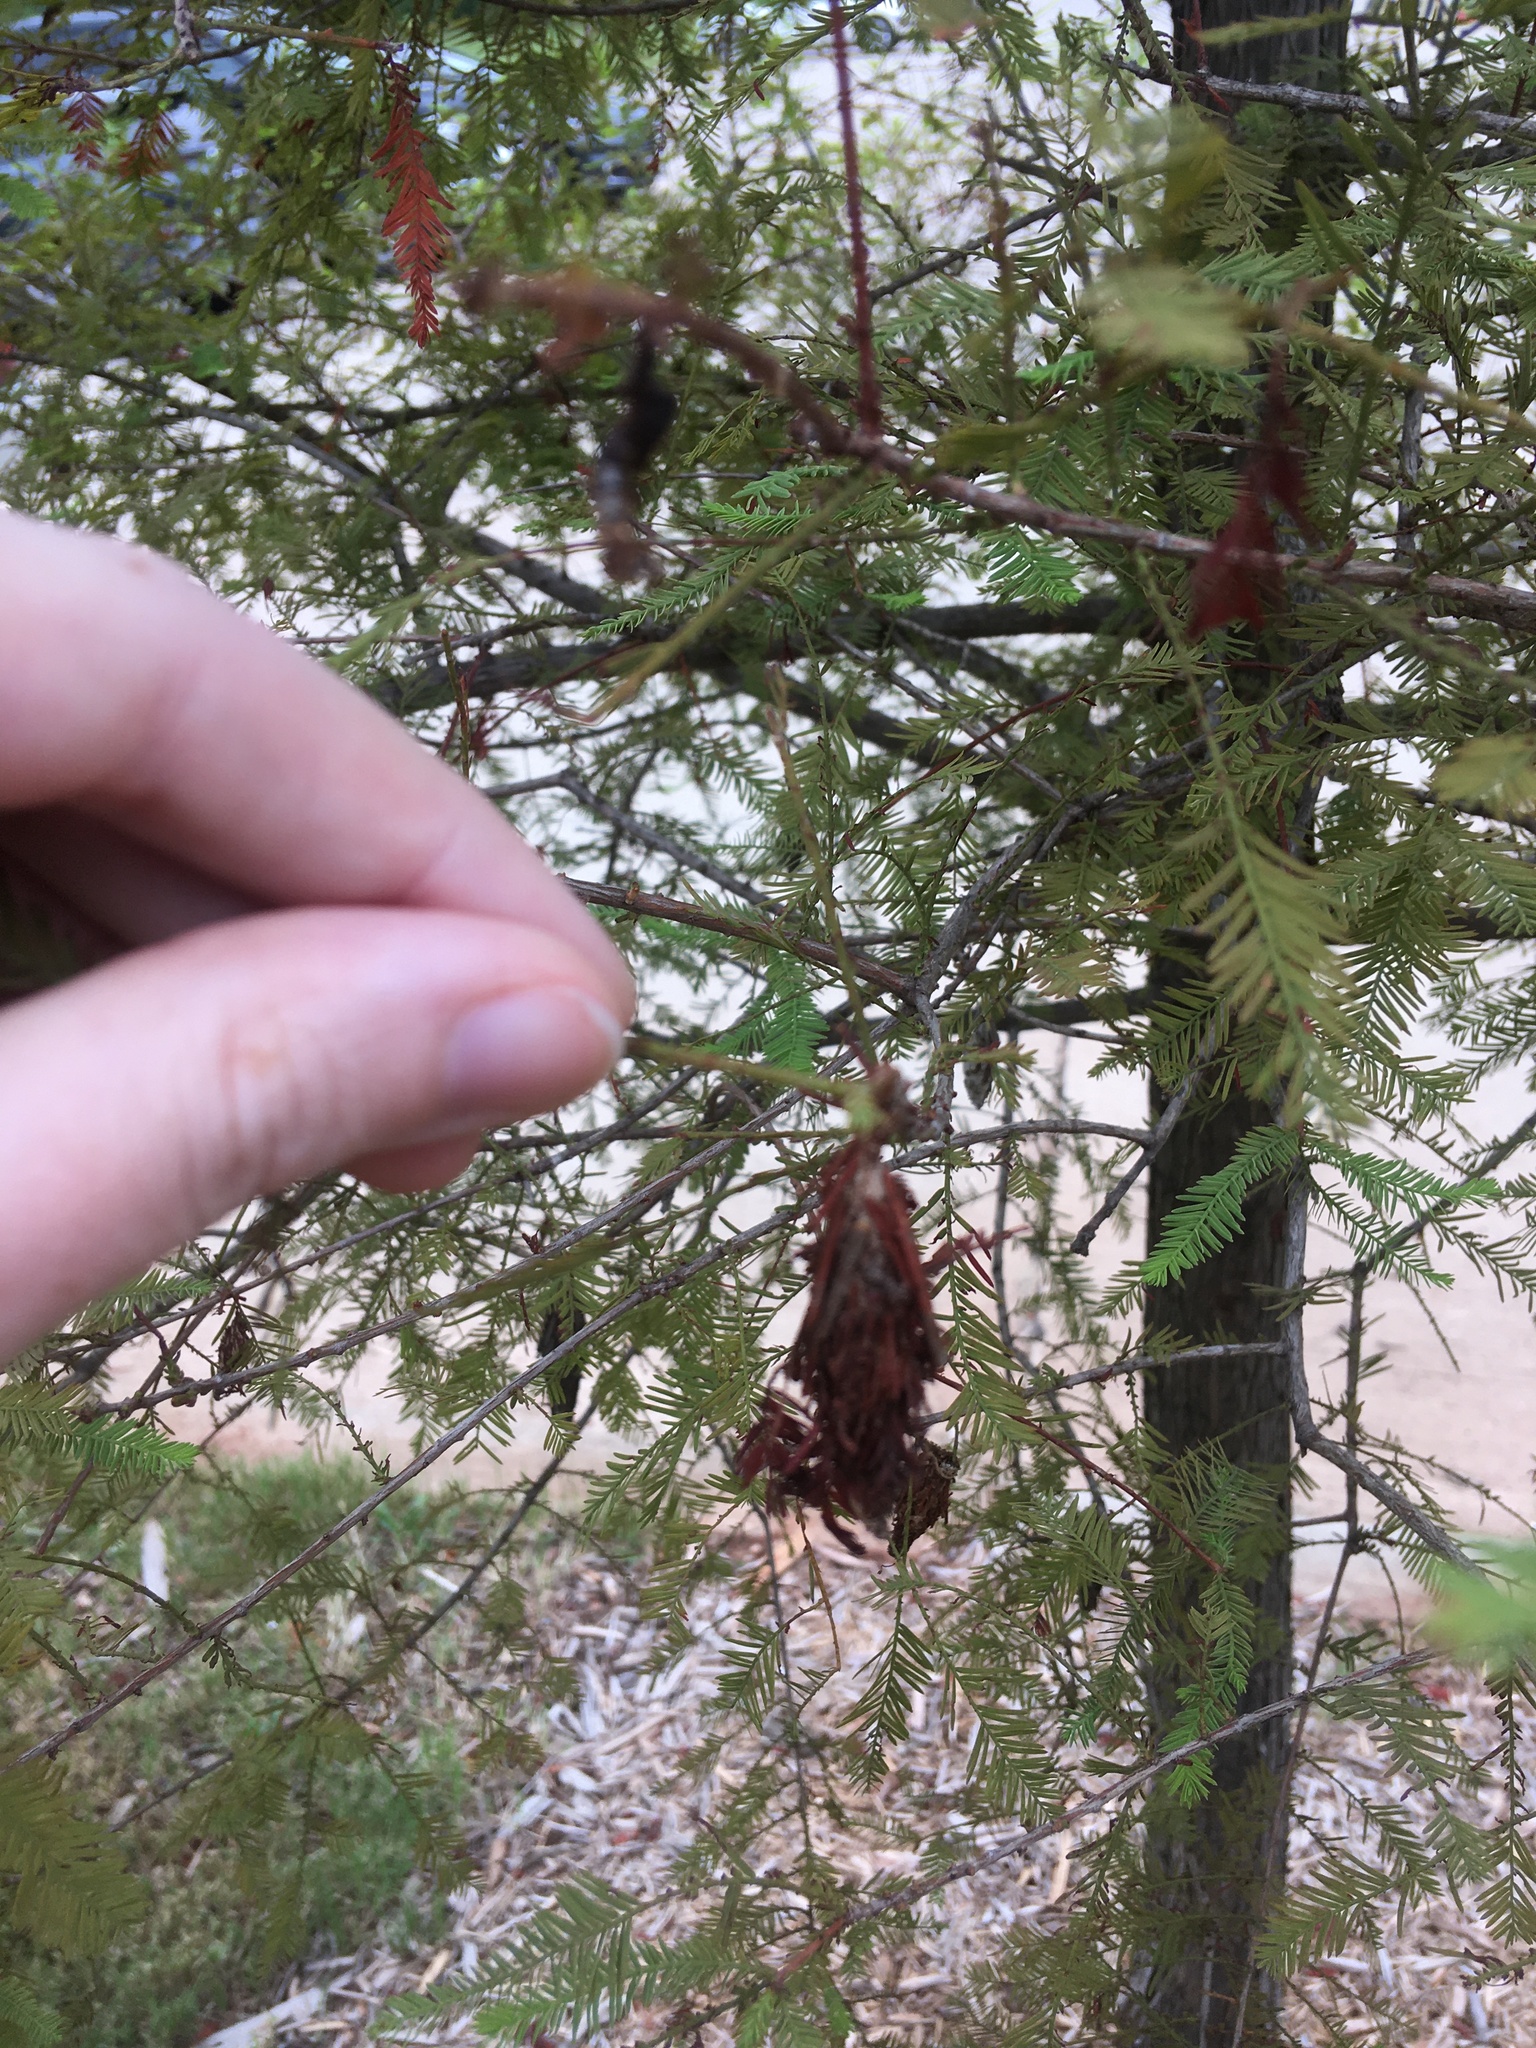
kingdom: Animalia
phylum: Arthropoda
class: Insecta
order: Lepidoptera
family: Psychidae
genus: Thyridopteryx
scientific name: Thyridopteryx ephemeraeformis
